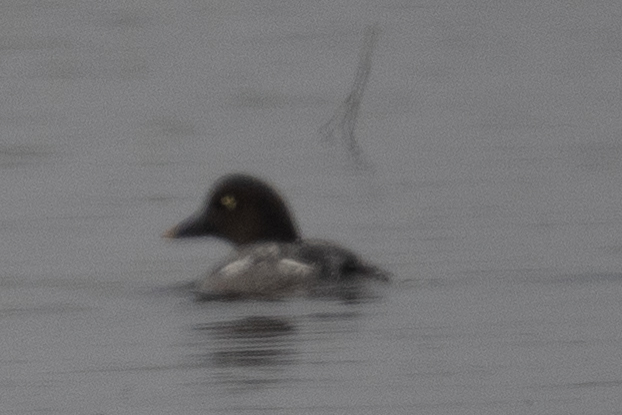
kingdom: Animalia
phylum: Chordata
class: Aves
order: Anseriformes
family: Anatidae
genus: Bucephala
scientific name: Bucephala clangula
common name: Common goldeneye
